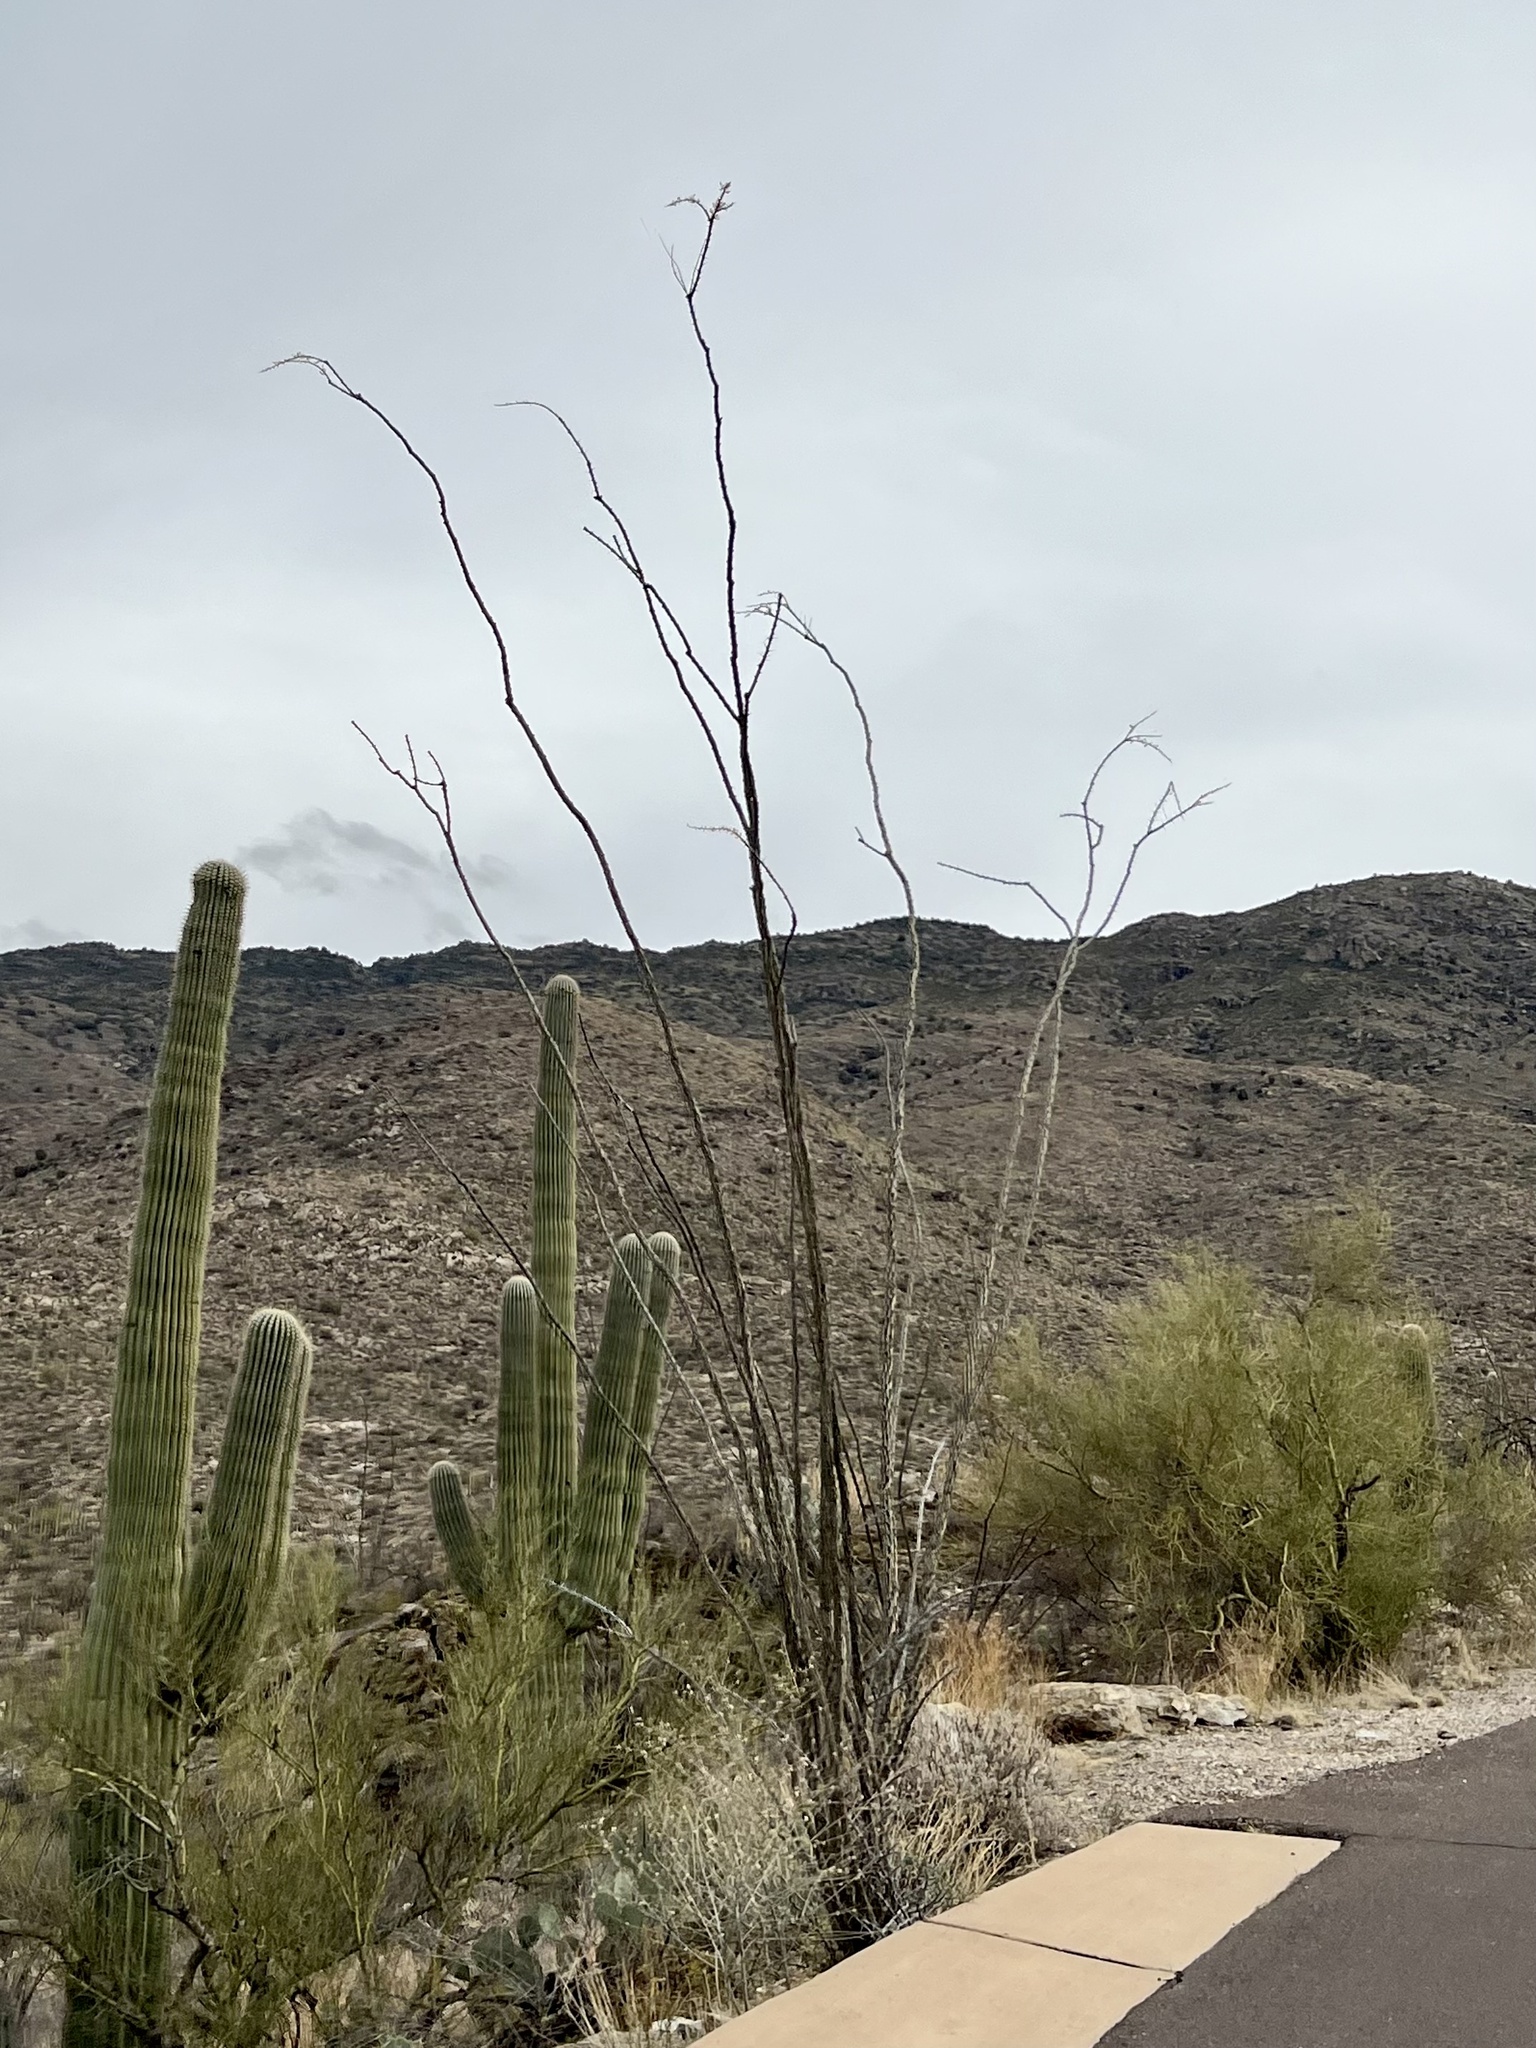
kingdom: Plantae
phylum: Tracheophyta
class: Magnoliopsida
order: Ericales
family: Fouquieriaceae
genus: Fouquieria
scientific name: Fouquieria splendens
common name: Vine-cactus
